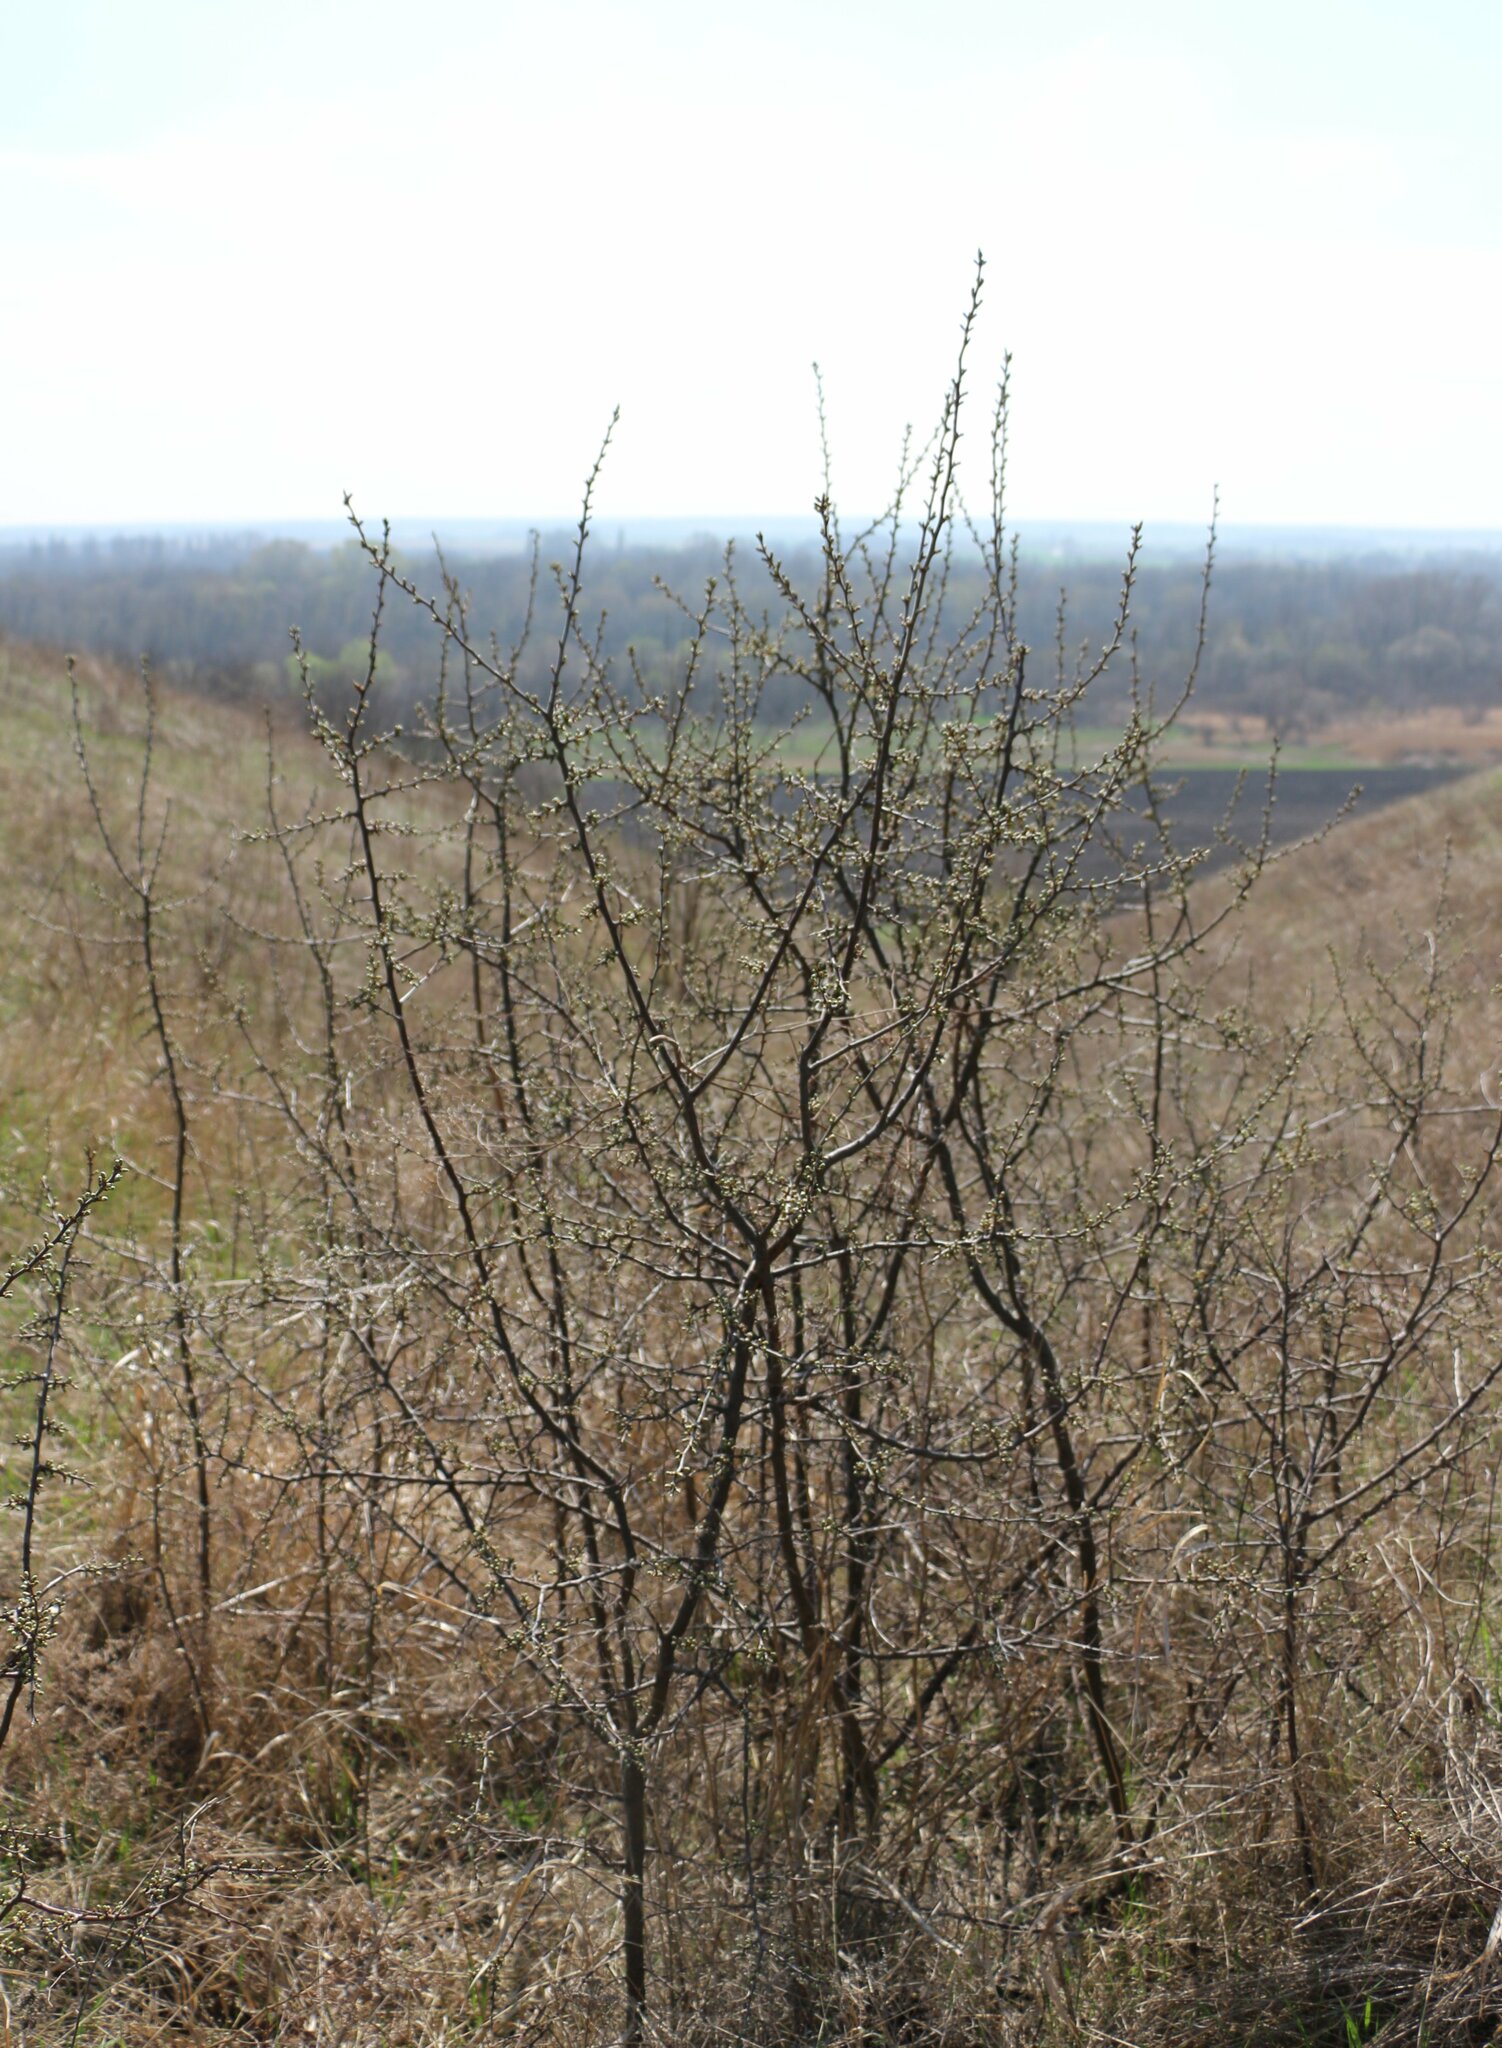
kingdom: Plantae
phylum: Tracheophyta
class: Magnoliopsida
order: Rosales
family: Rosaceae
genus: Prunus
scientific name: Prunus spinosa
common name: Blackthorn
